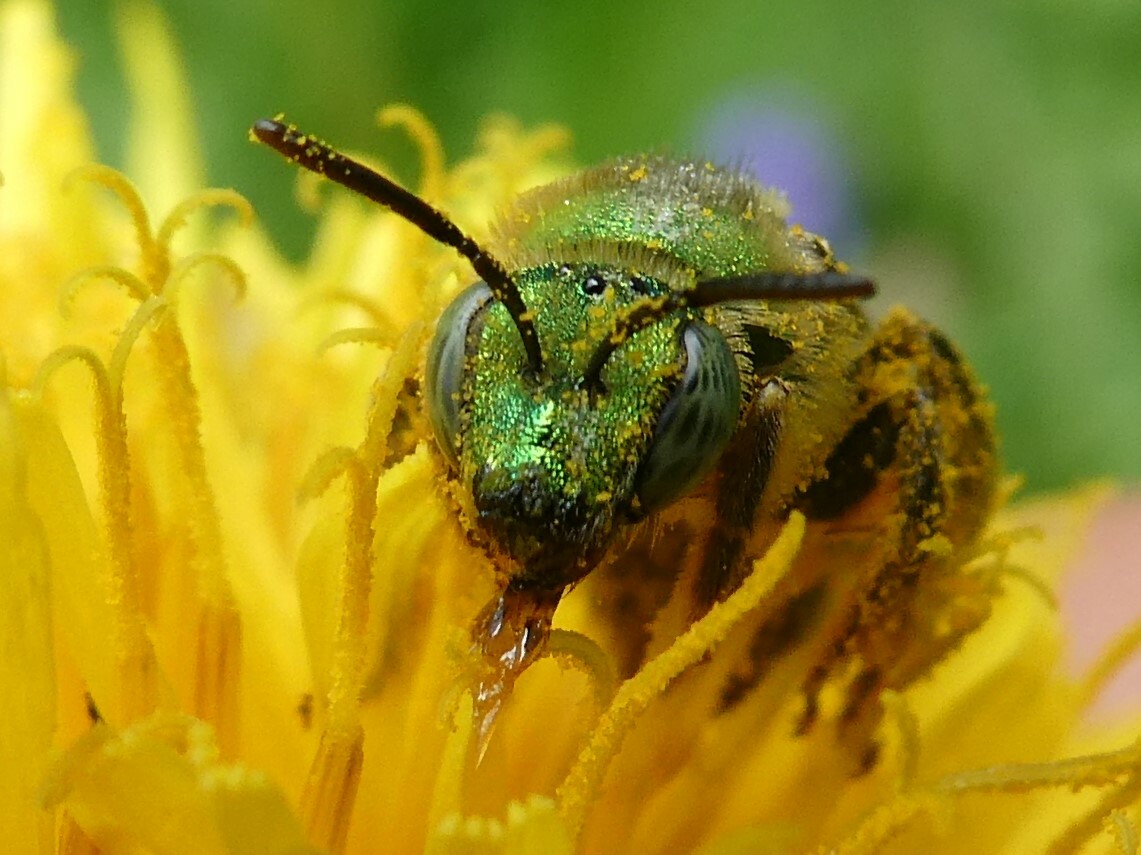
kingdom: Animalia
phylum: Arthropoda
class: Insecta
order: Hymenoptera
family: Halictidae
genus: Agapostemon
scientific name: Agapostemon virescens
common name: Bicolored striped sweat bee
